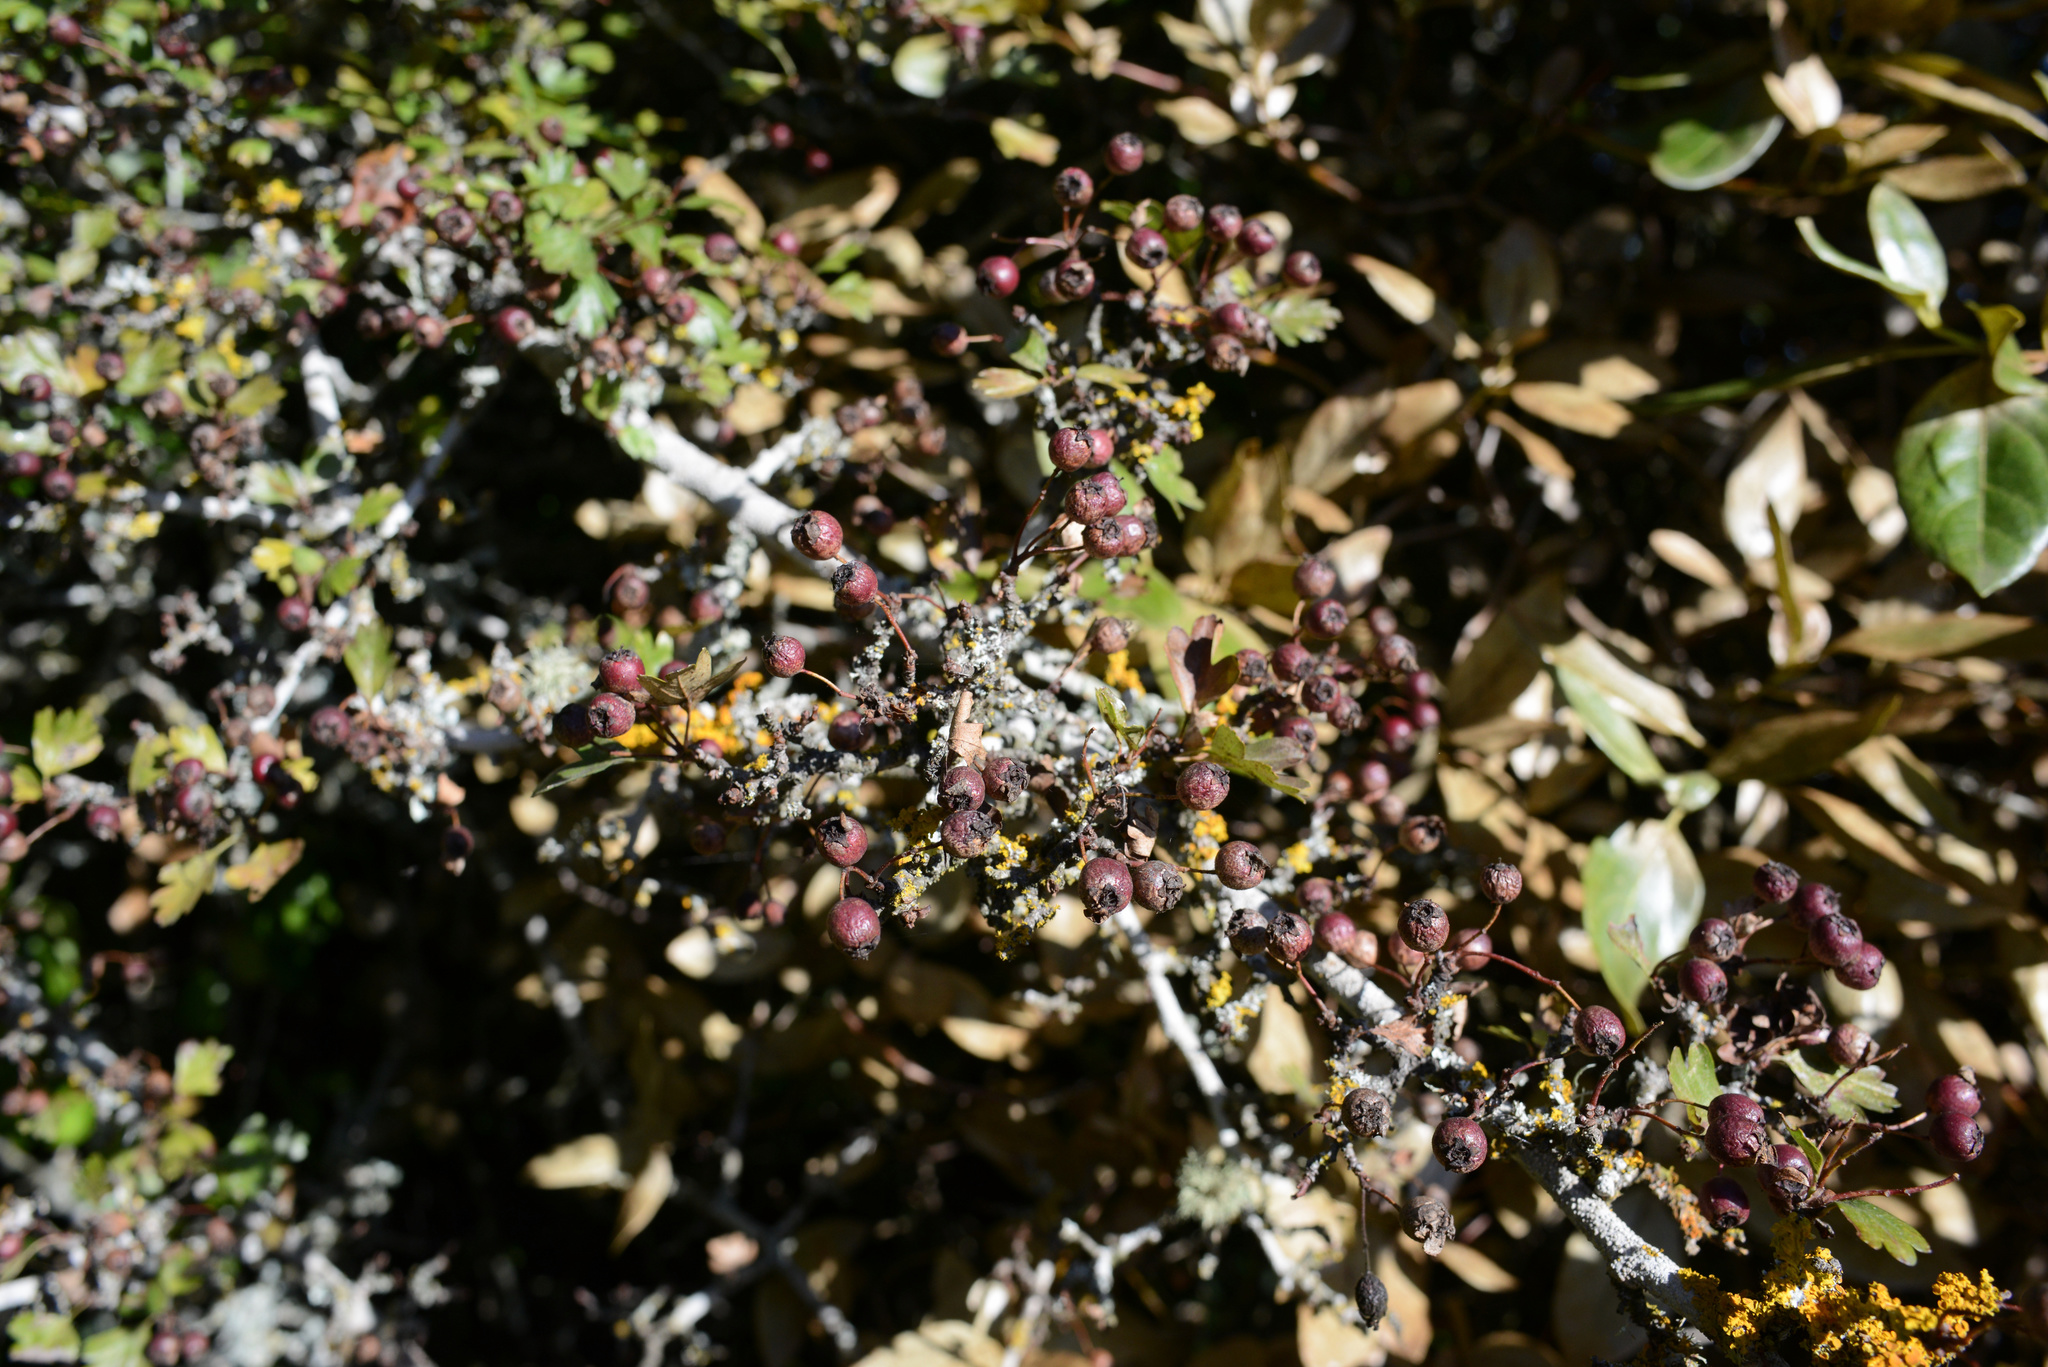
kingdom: Plantae
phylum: Tracheophyta
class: Magnoliopsida
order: Rosales
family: Rosaceae
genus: Crataegus
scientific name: Crataegus monogyna
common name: Hawthorn
